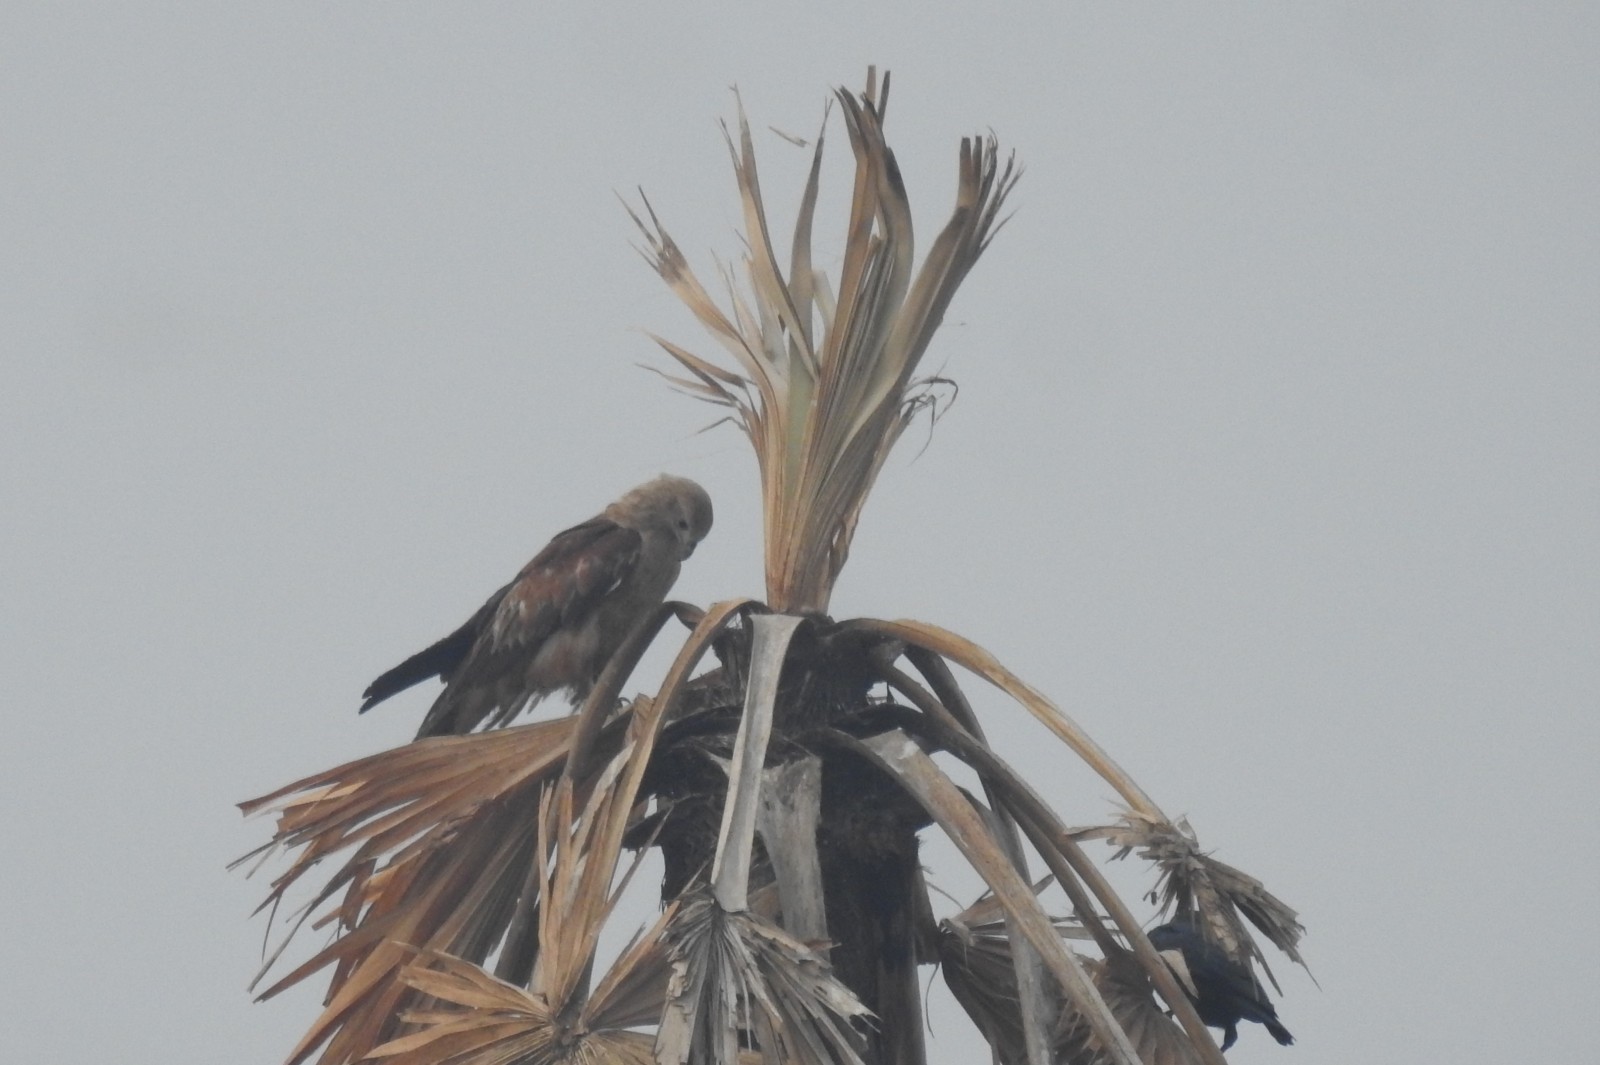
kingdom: Animalia
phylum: Chordata
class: Aves
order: Accipitriformes
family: Accipitridae
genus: Haliastur
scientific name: Haliastur indus
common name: Brahminy kite
